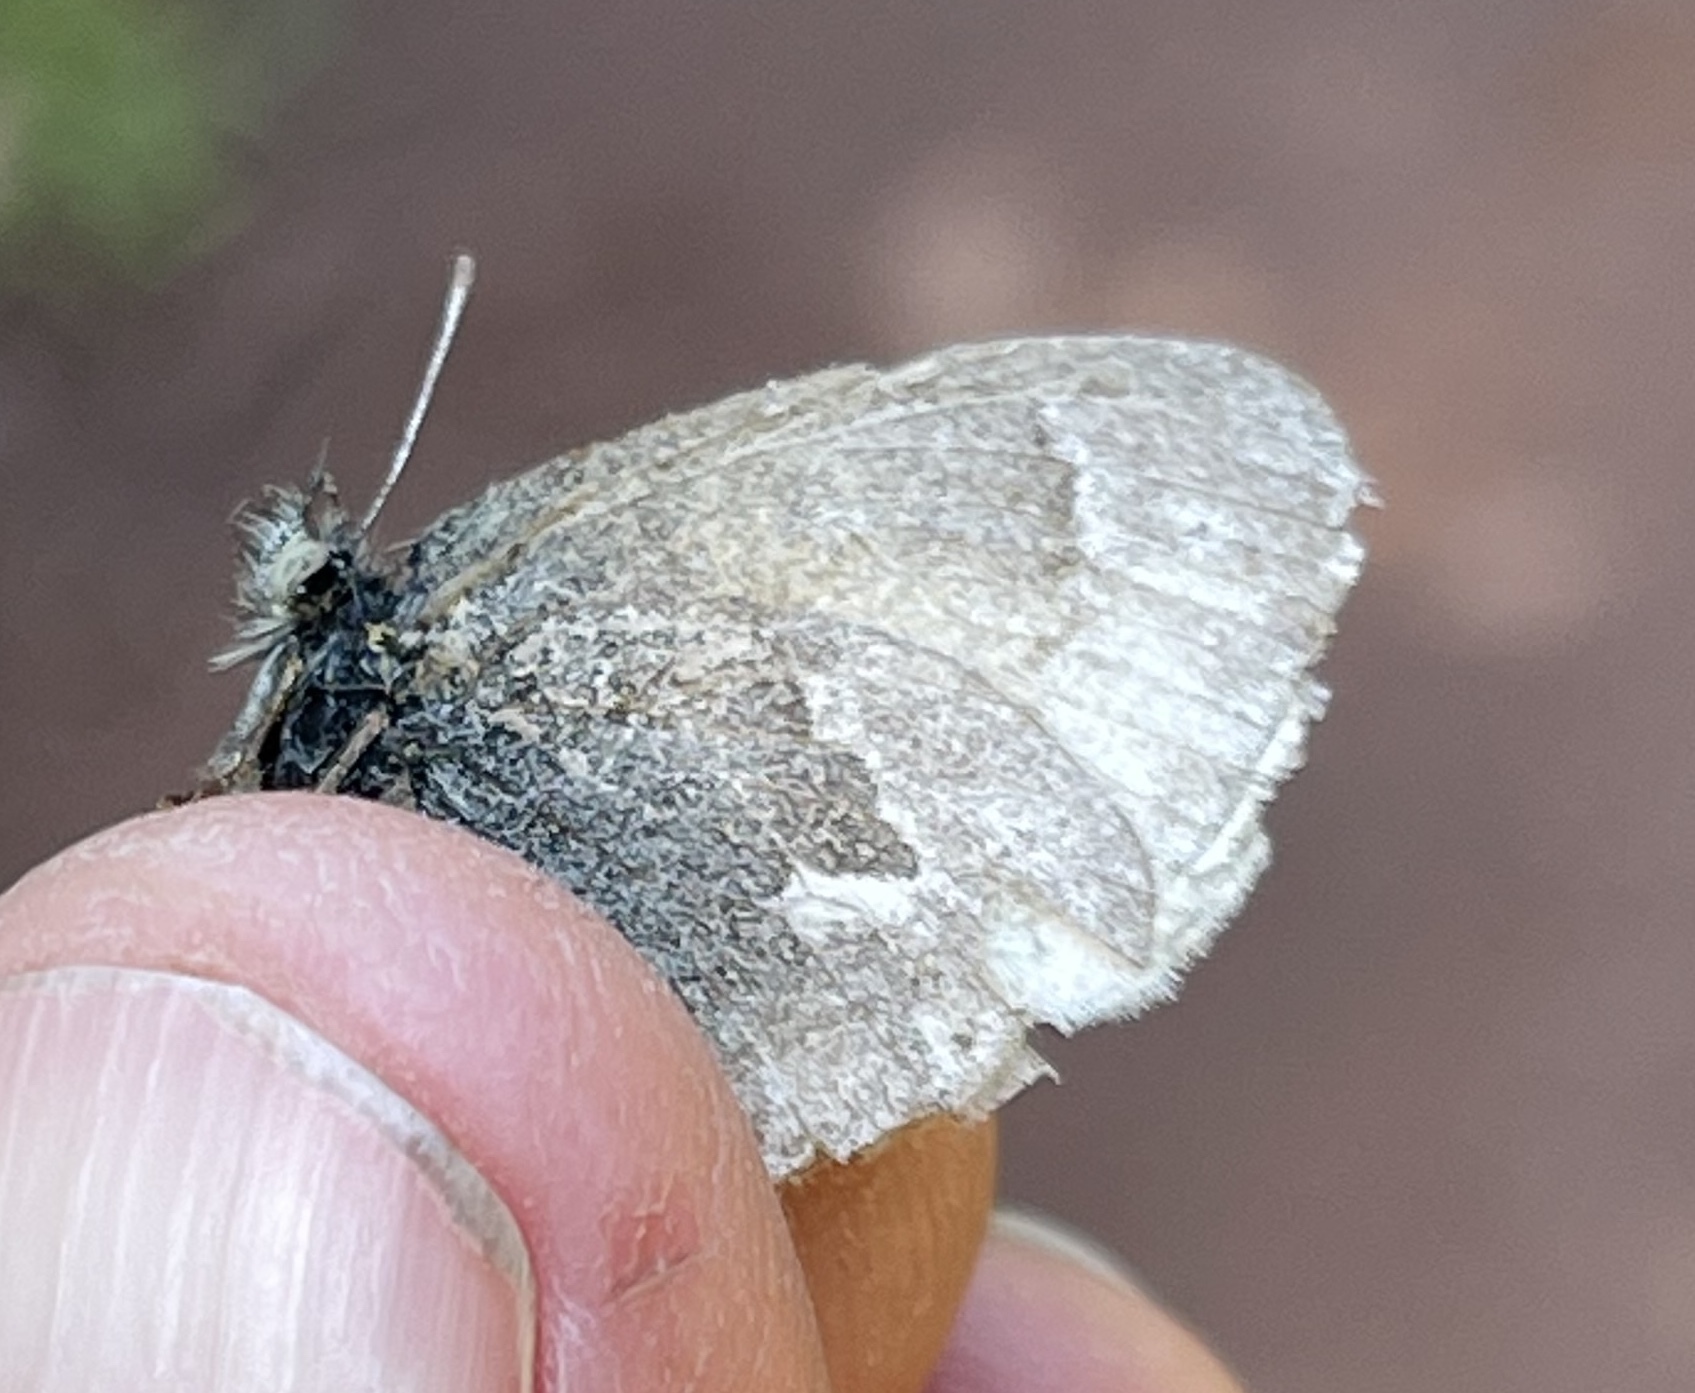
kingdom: Animalia
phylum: Arthropoda
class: Insecta
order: Lepidoptera
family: Nymphalidae
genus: Coenonympha
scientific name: Coenonympha california
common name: Common ringlet
